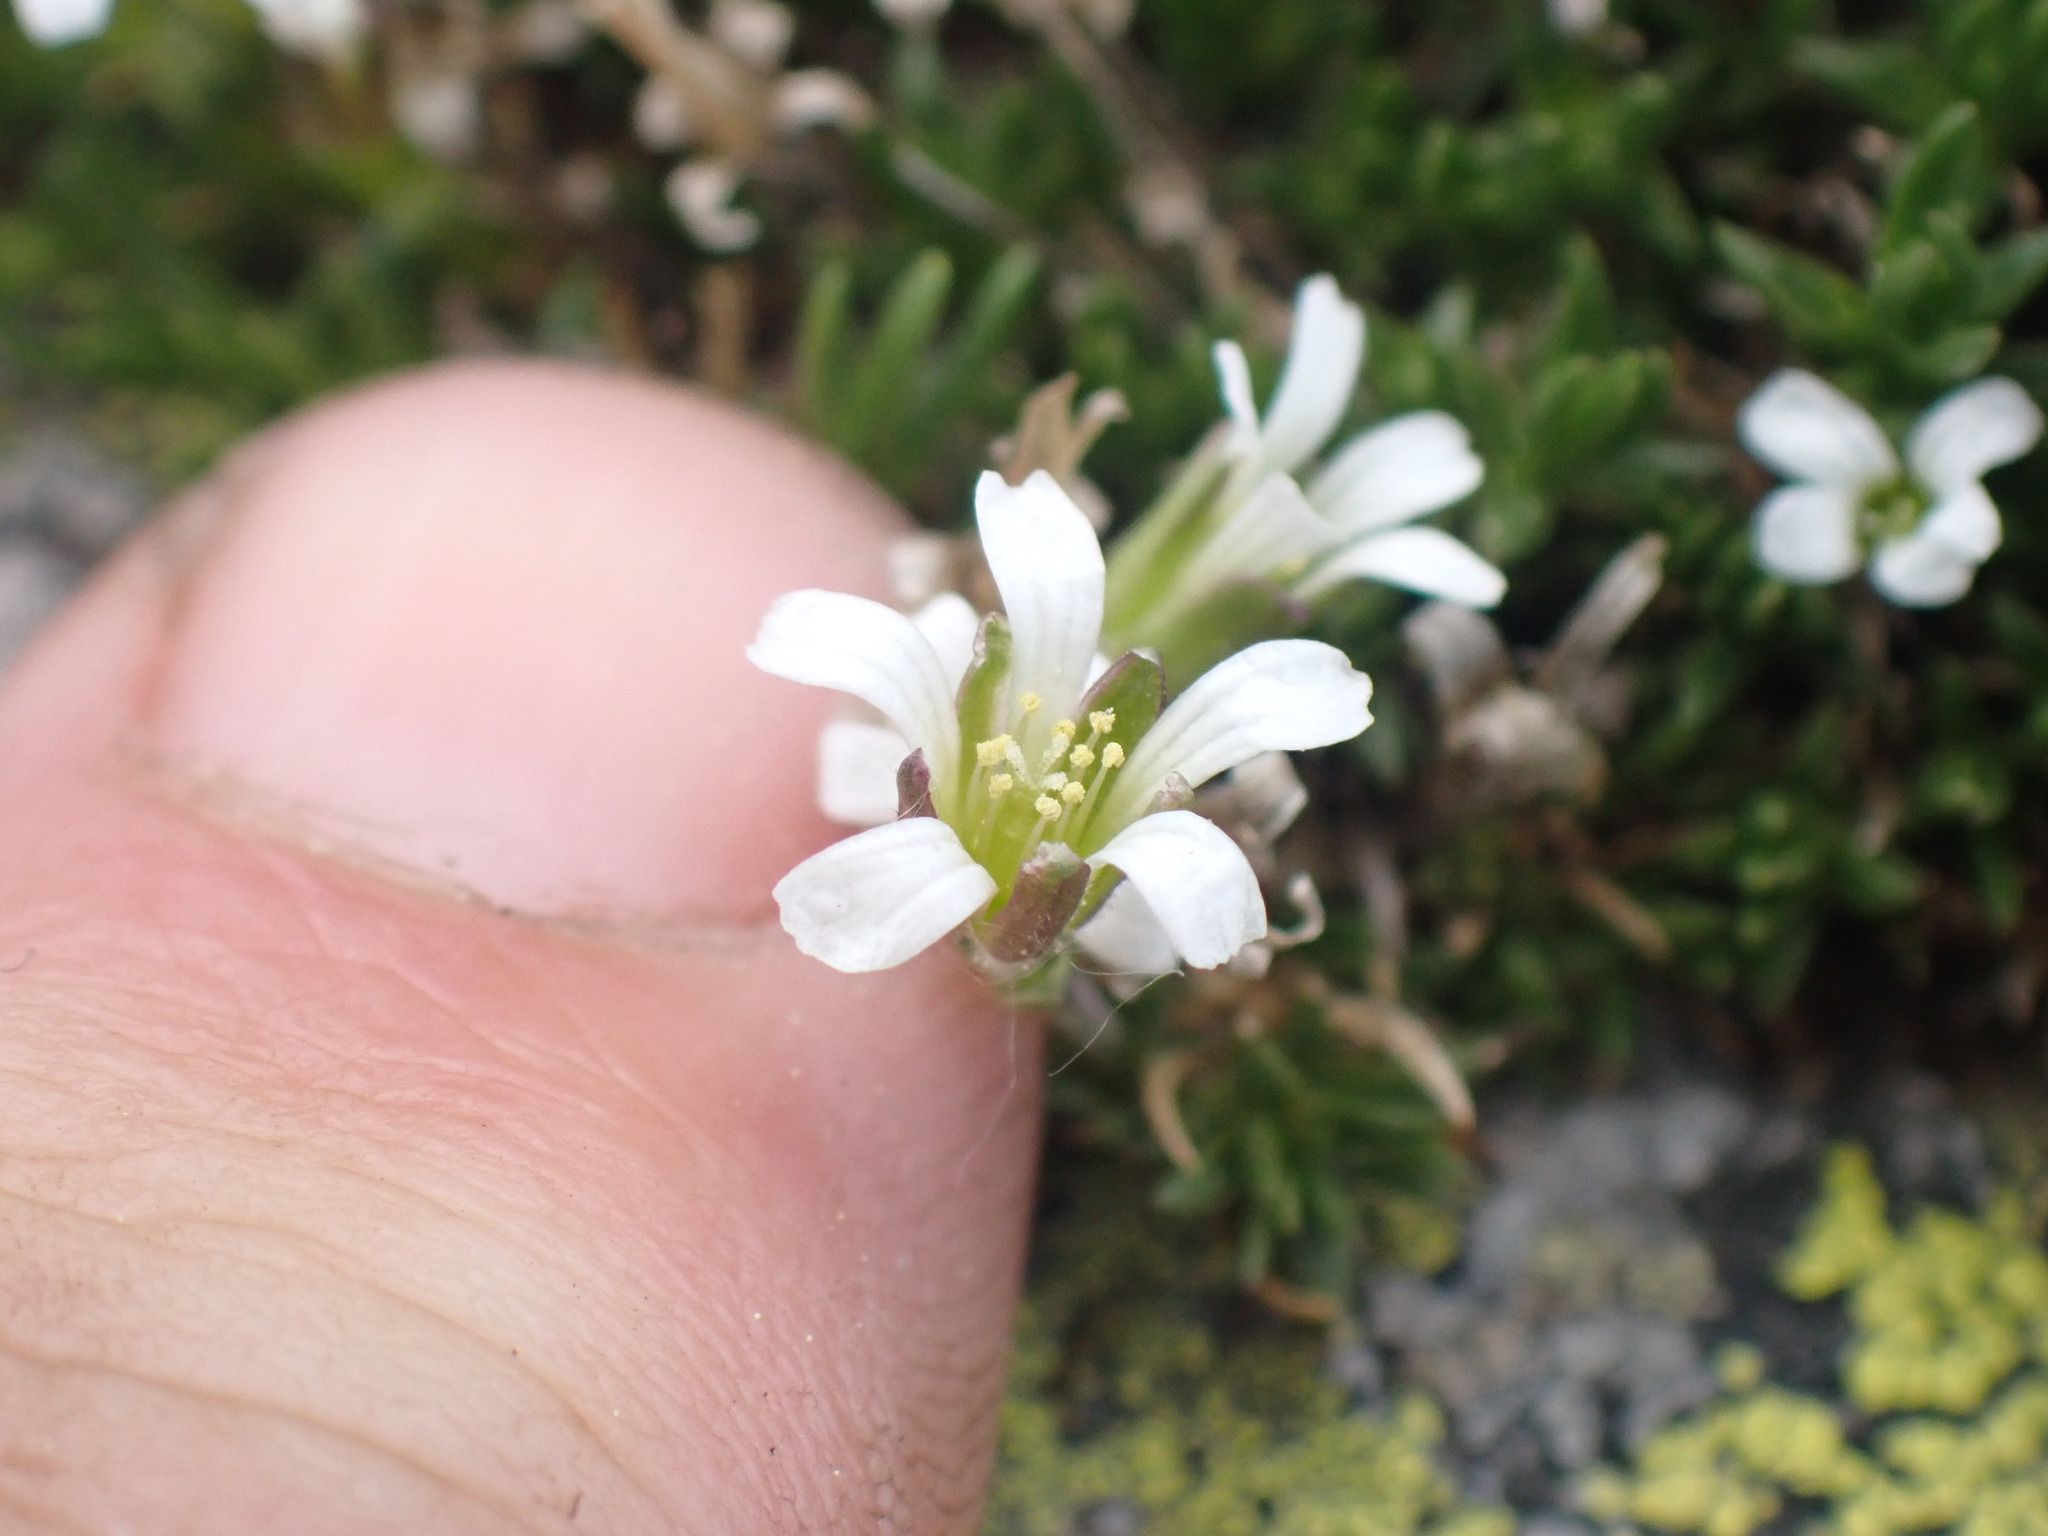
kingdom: Plantae
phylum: Tracheophyta
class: Magnoliopsida
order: Caryophyllales
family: Caryophyllaceae
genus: Cherleria
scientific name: Cherleria obtusiloba
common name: Alpine stitchwort
